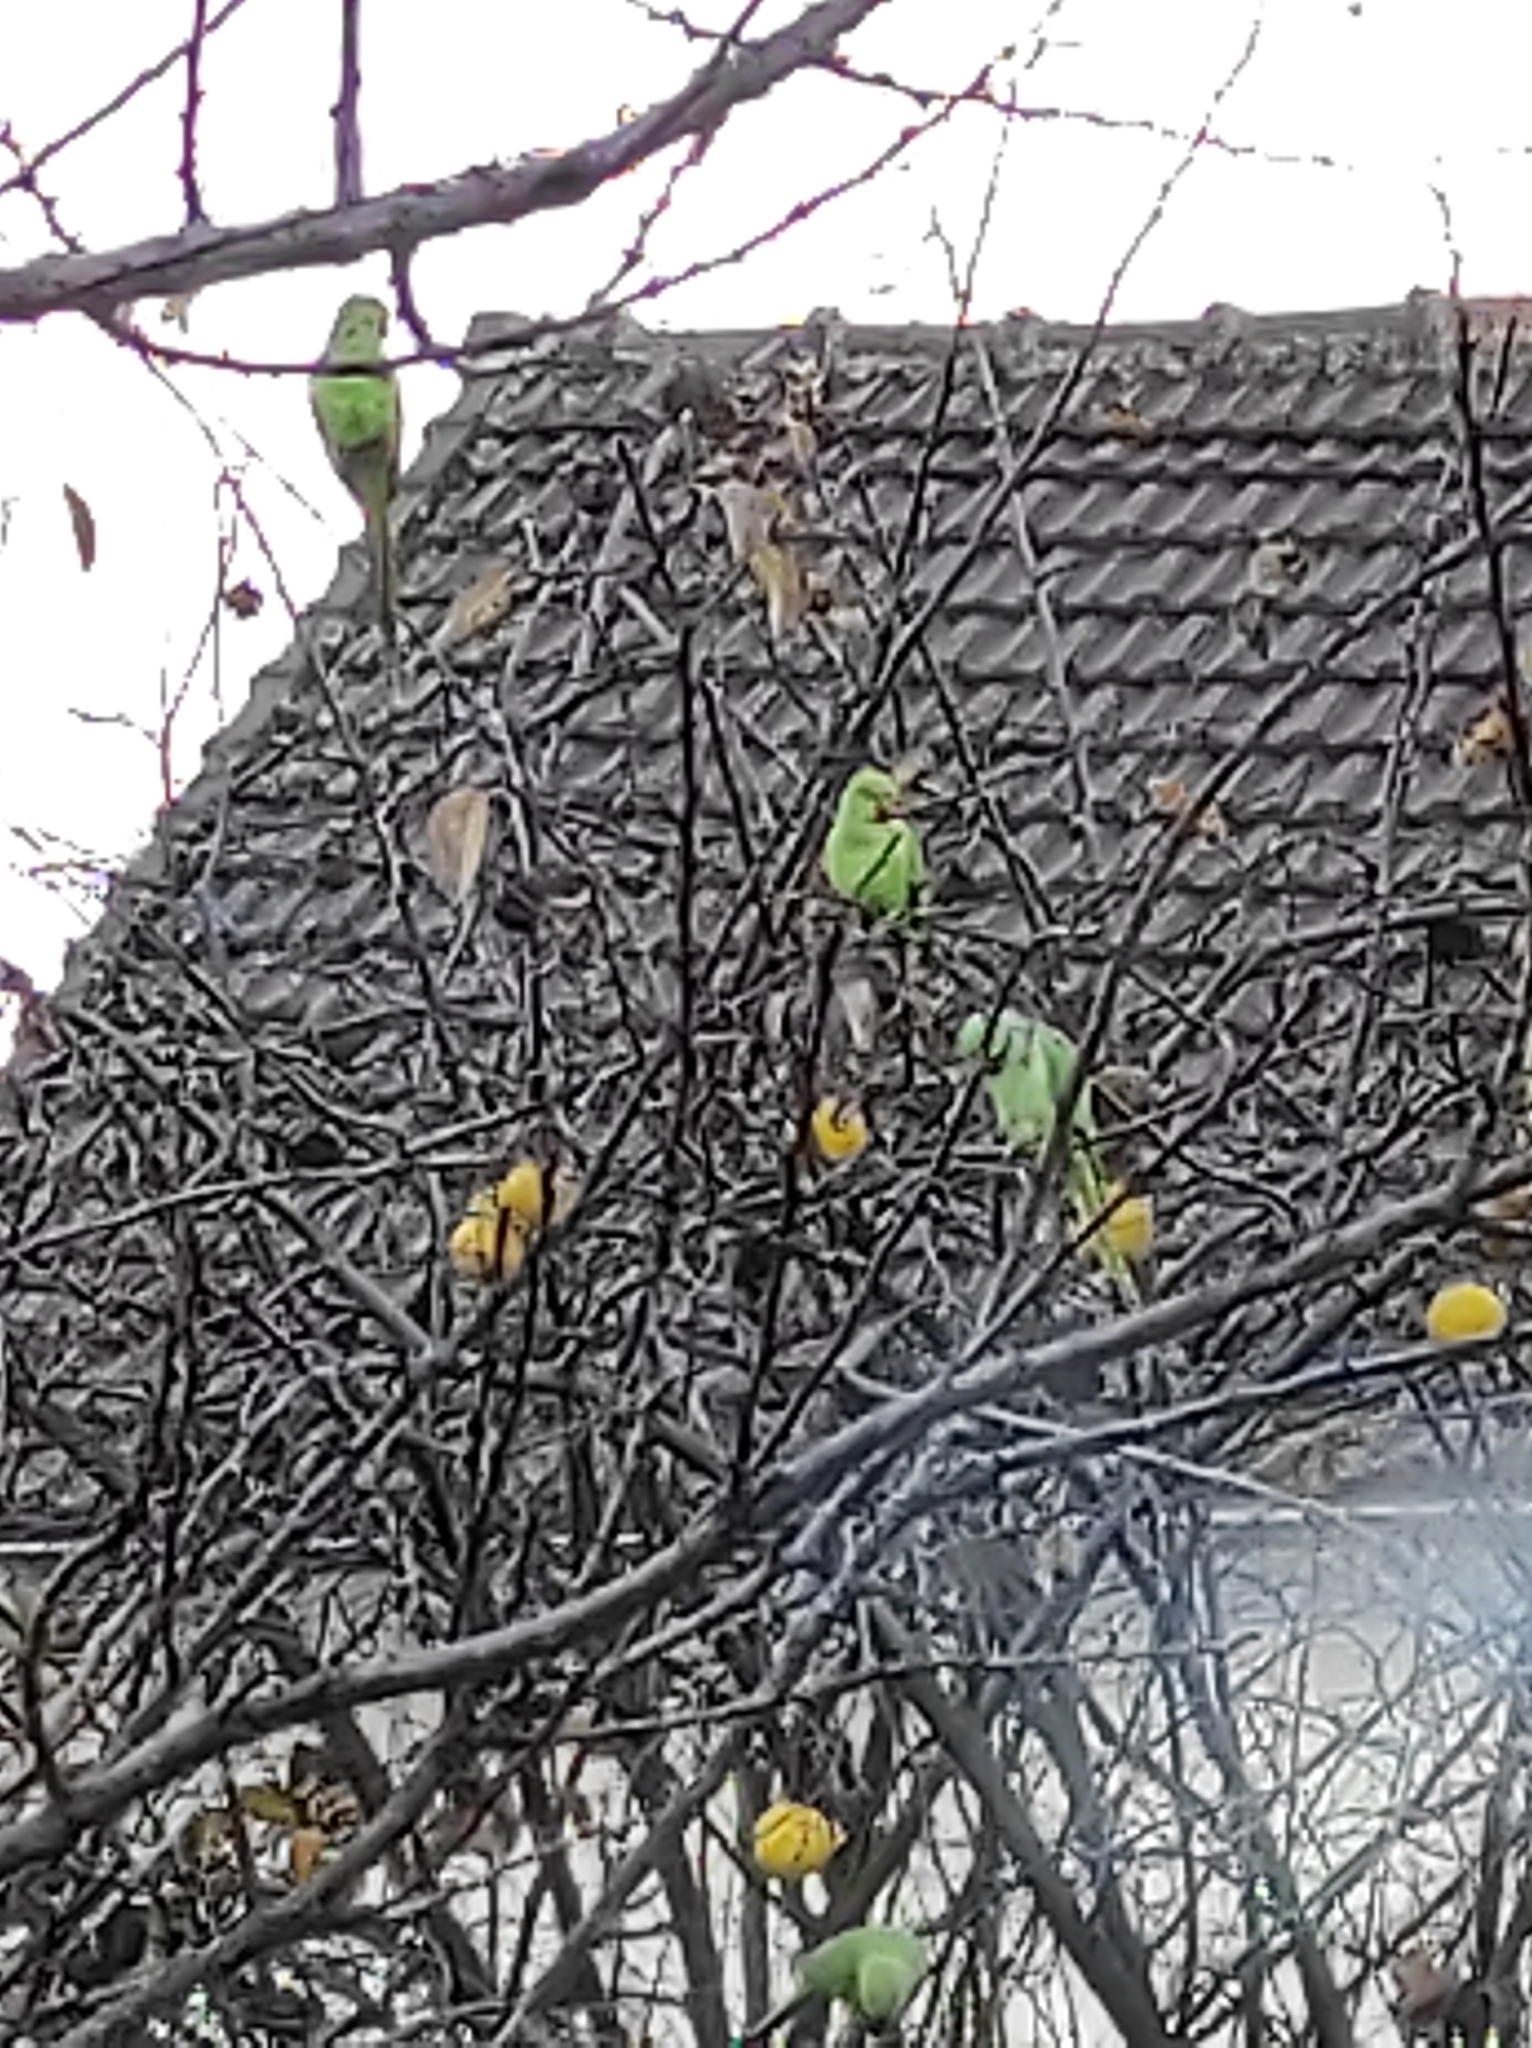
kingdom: Animalia
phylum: Chordata
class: Aves
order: Psittaciformes
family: Psittacidae
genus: Psittacula
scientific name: Psittacula krameri
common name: Rose-ringed parakeet
